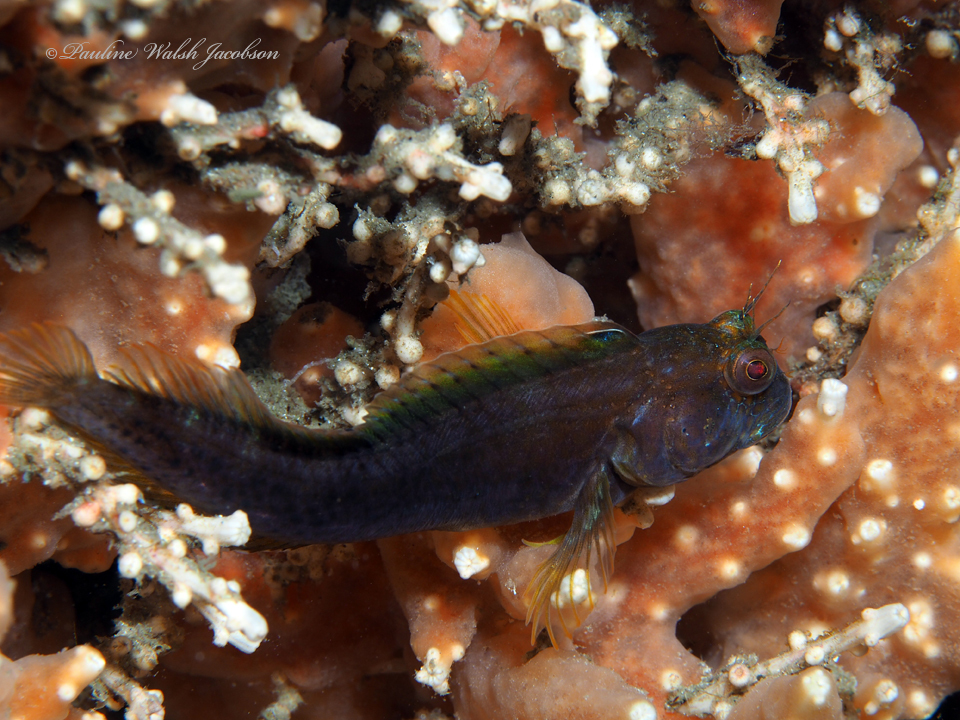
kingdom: Animalia
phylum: Chordata
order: Perciformes
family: Blenniidae
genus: Parablennius
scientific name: Parablennius marmoreus
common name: Seaweed blenny
